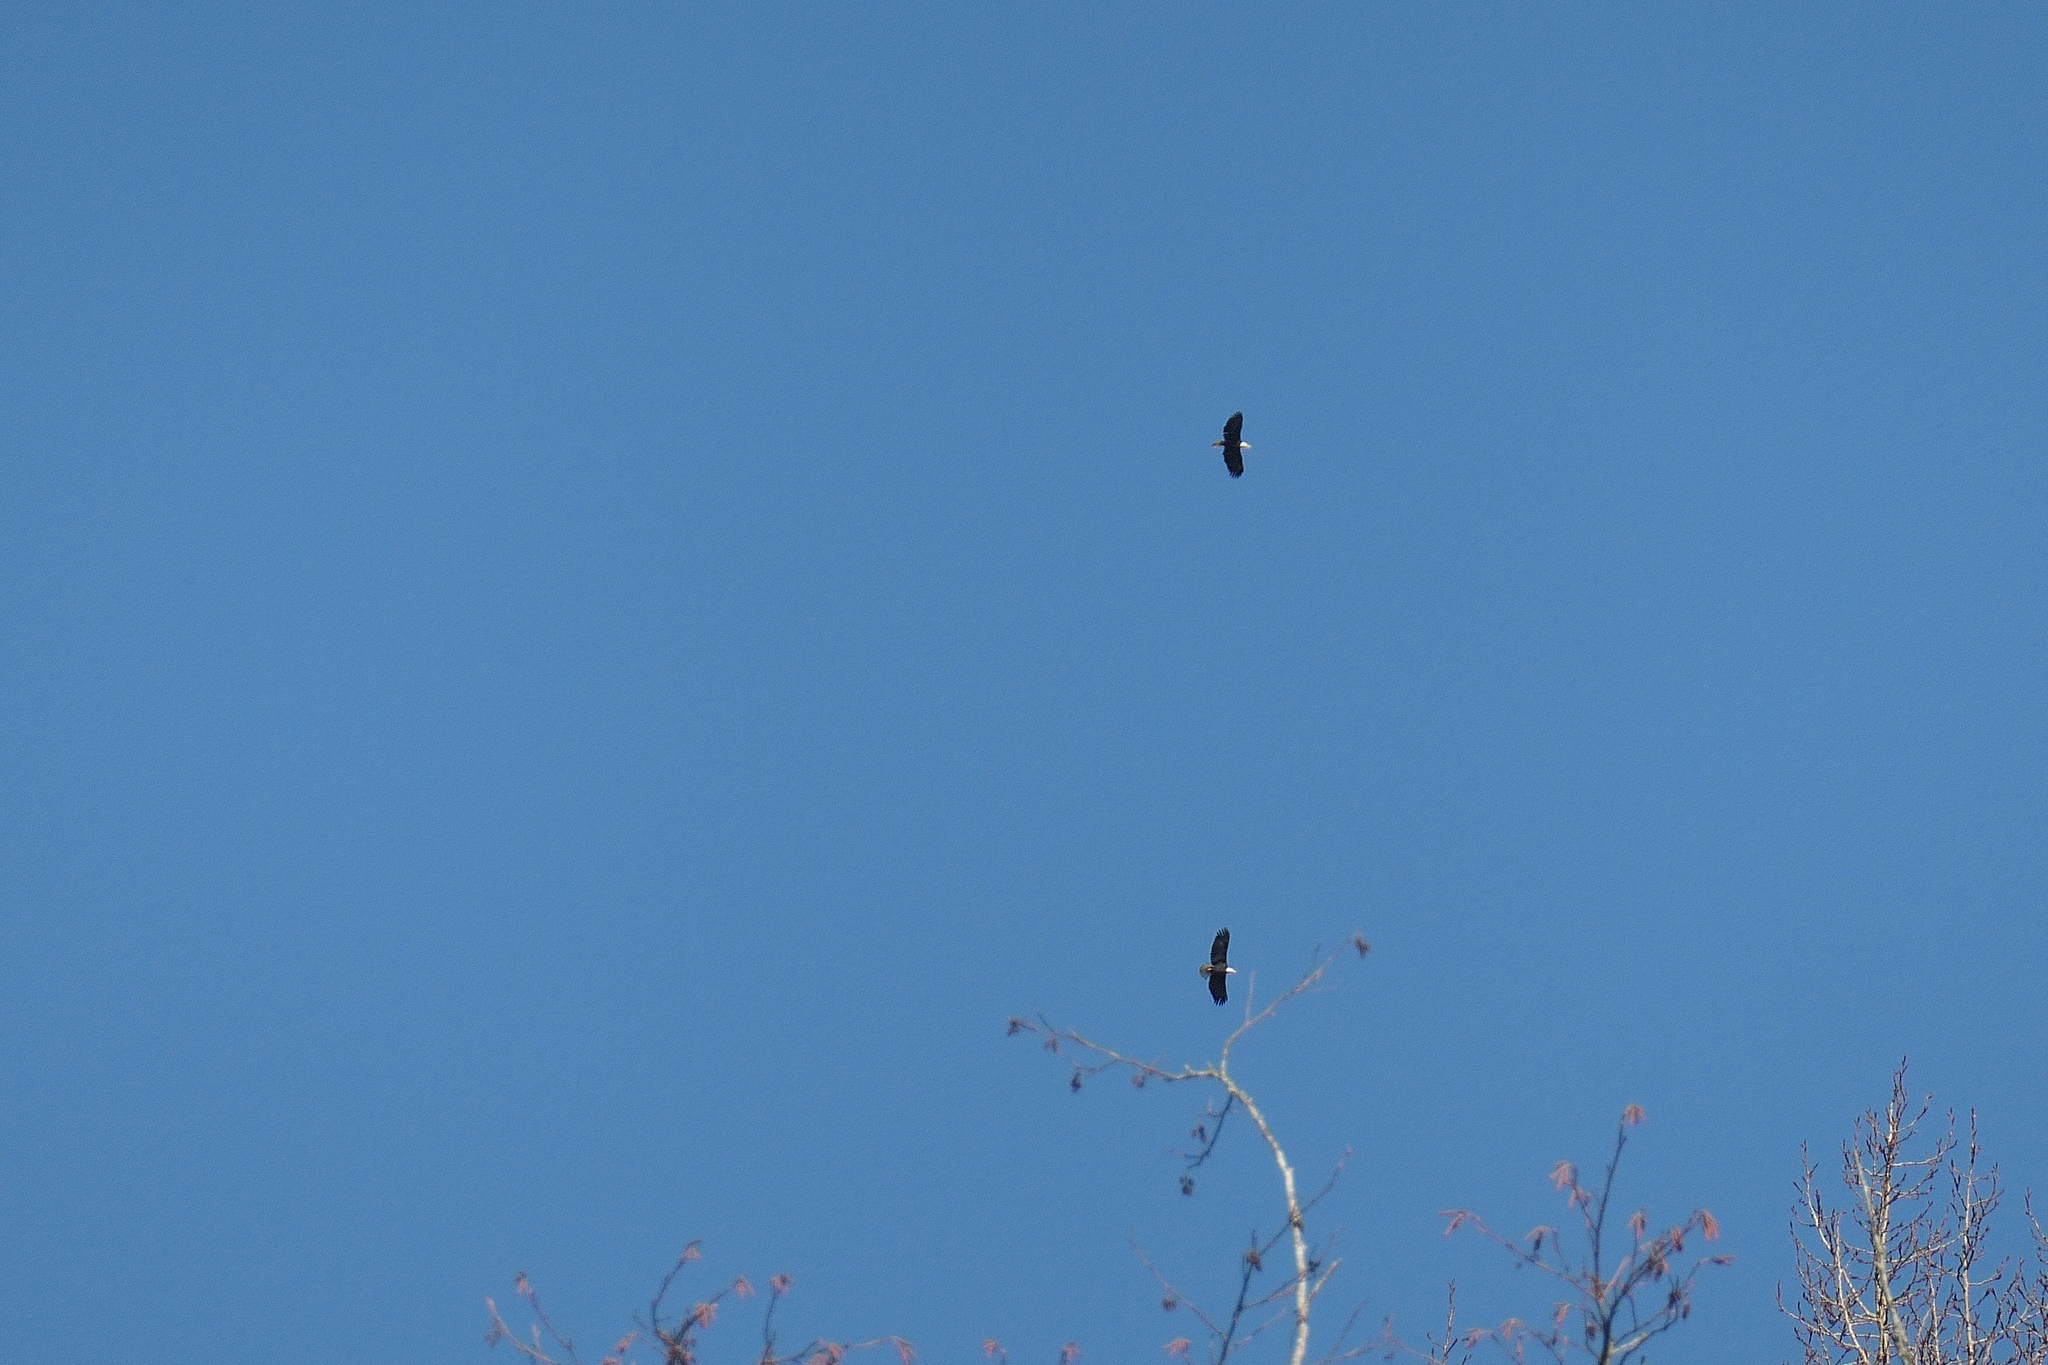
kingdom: Animalia
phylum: Chordata
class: Aves
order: Accipitriformes
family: Accipitridae
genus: Haliaeetus
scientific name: Haliaeetus leucocephalus
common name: Bald eagle
